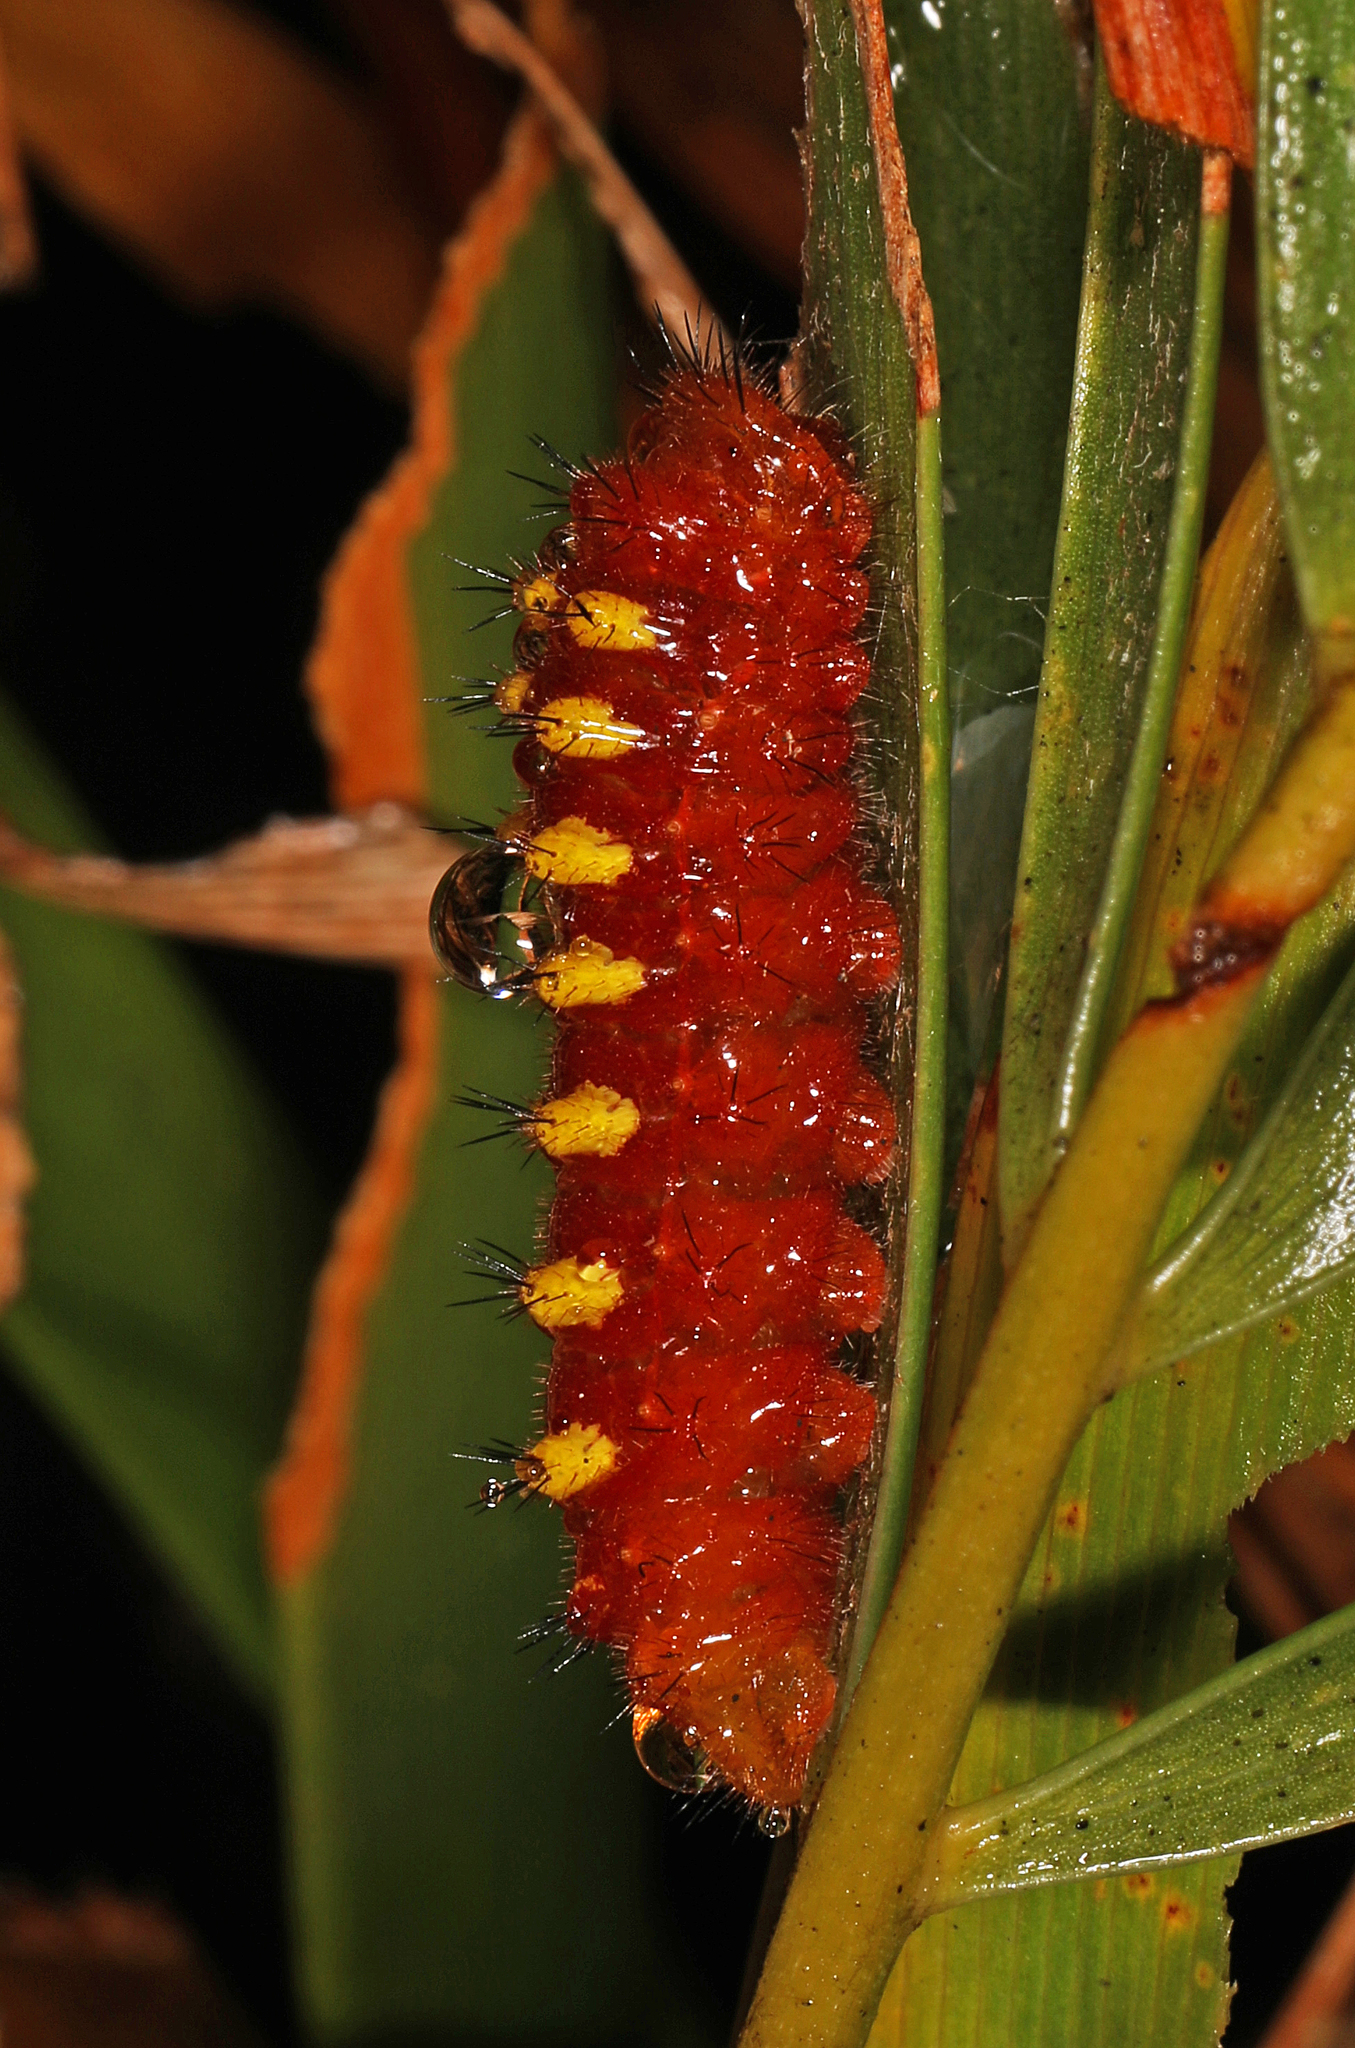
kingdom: Animalia
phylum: Arthropoda
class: Insecta
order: Lepidoptera
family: Lycaenidae
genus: Eumaeus
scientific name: Eumaeus atala
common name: Atala
